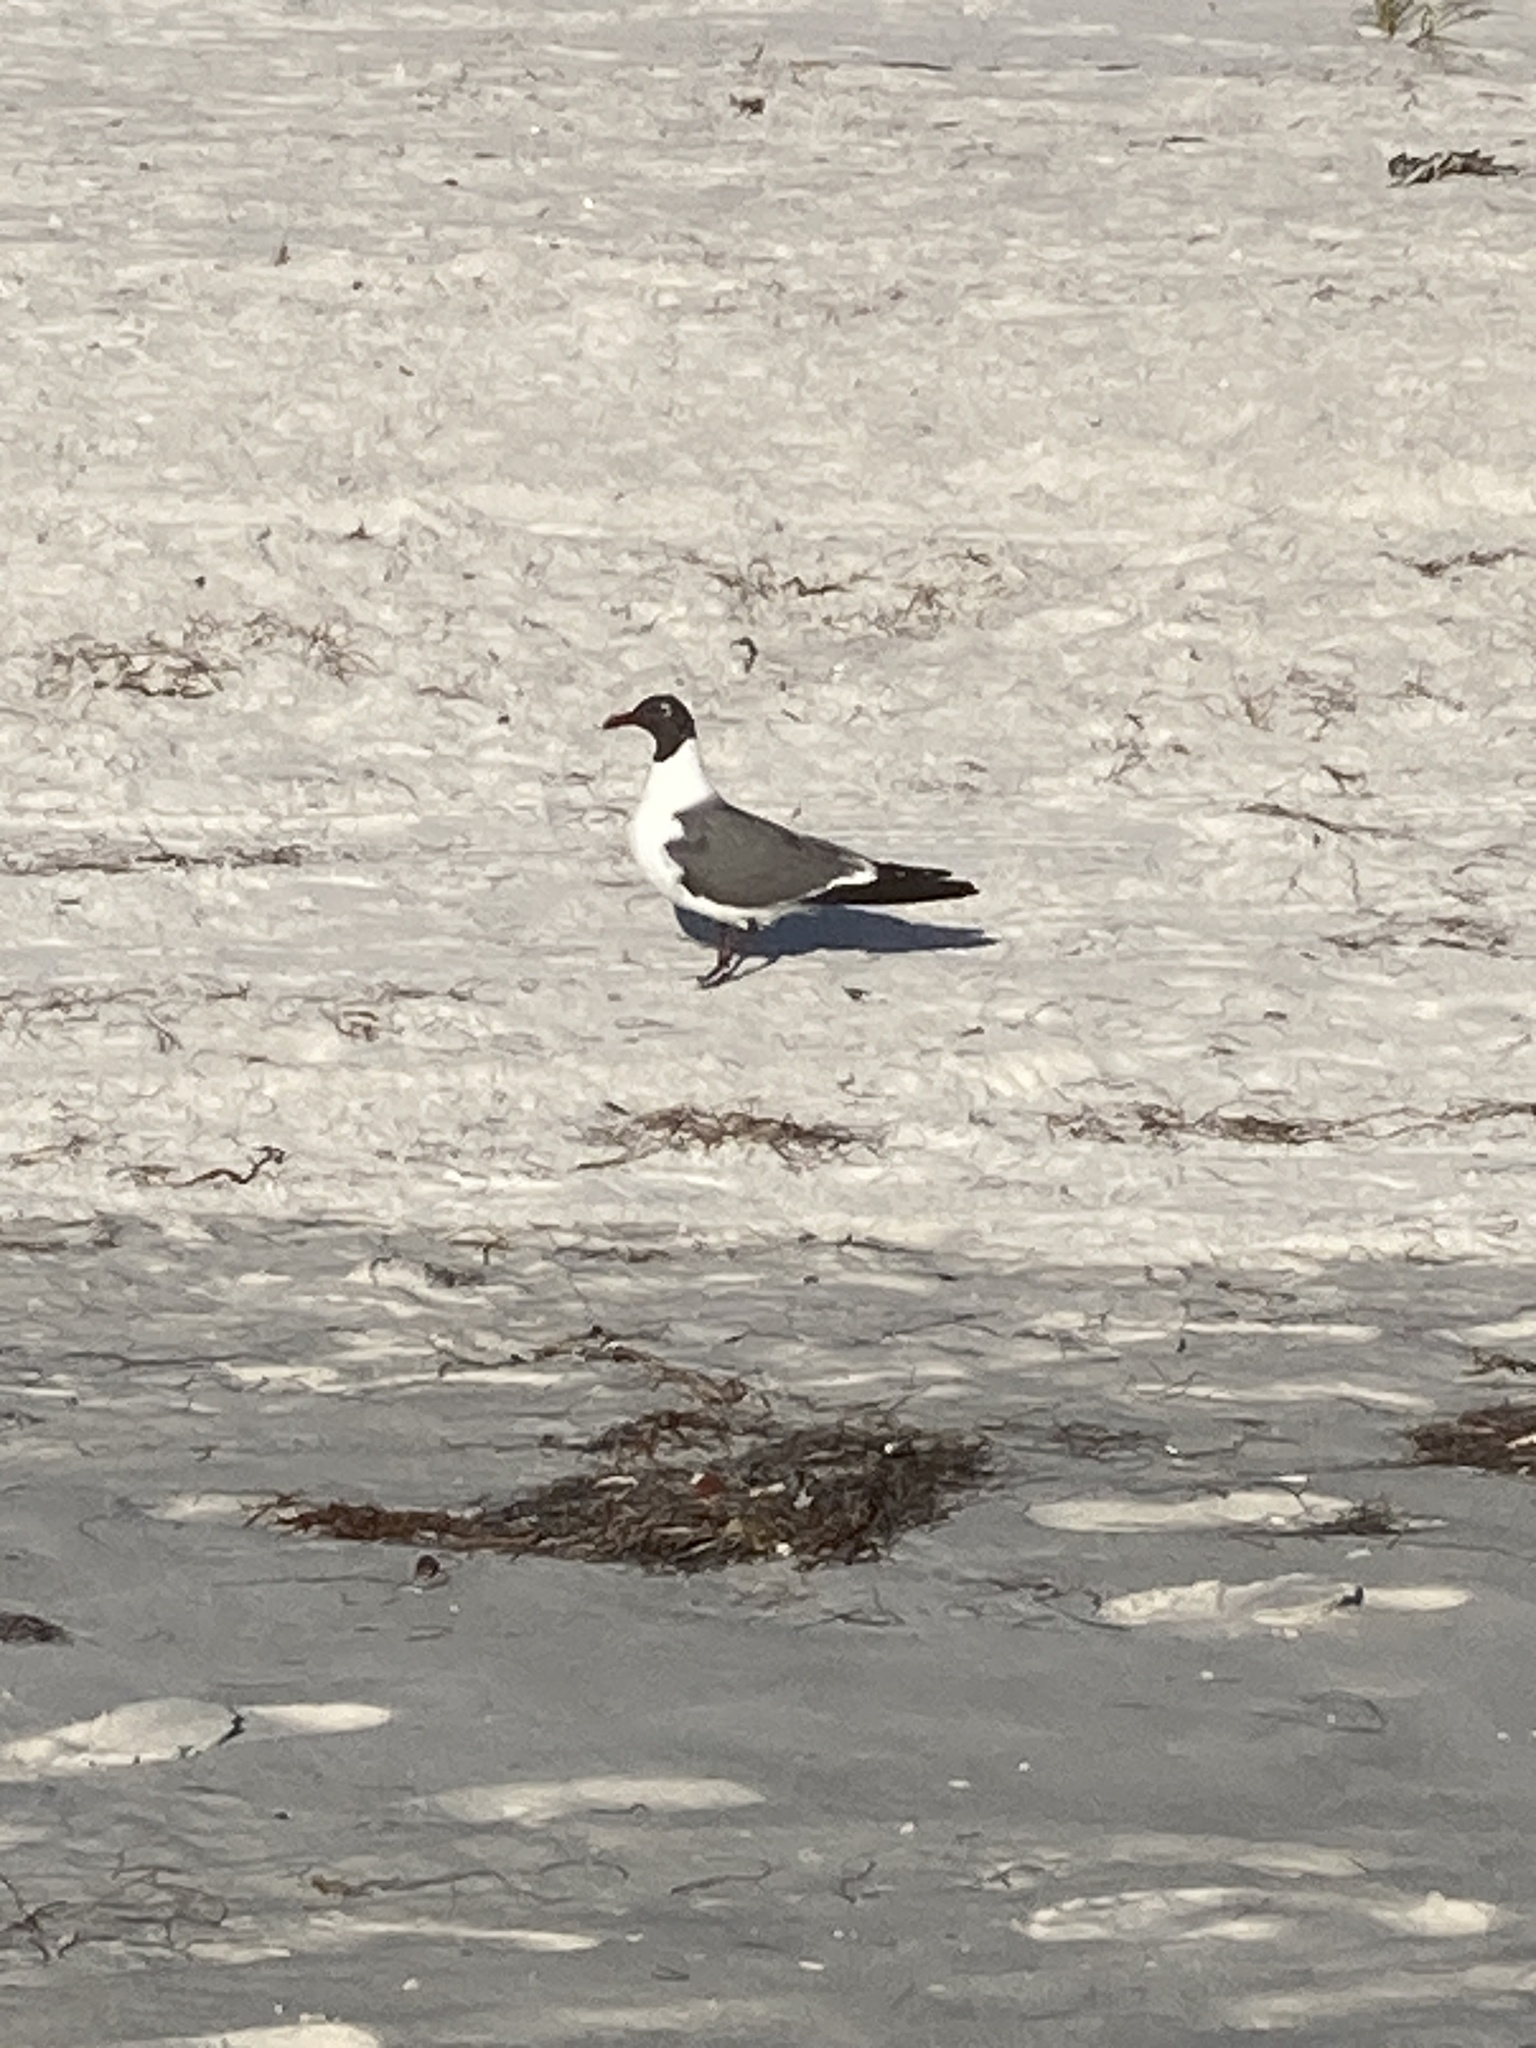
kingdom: Animalia
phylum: Chordata
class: Aves
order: Charadriiformes
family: Laridae
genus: Leucophaeus
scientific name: Leucophaeus atricilla
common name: Laughing gull
